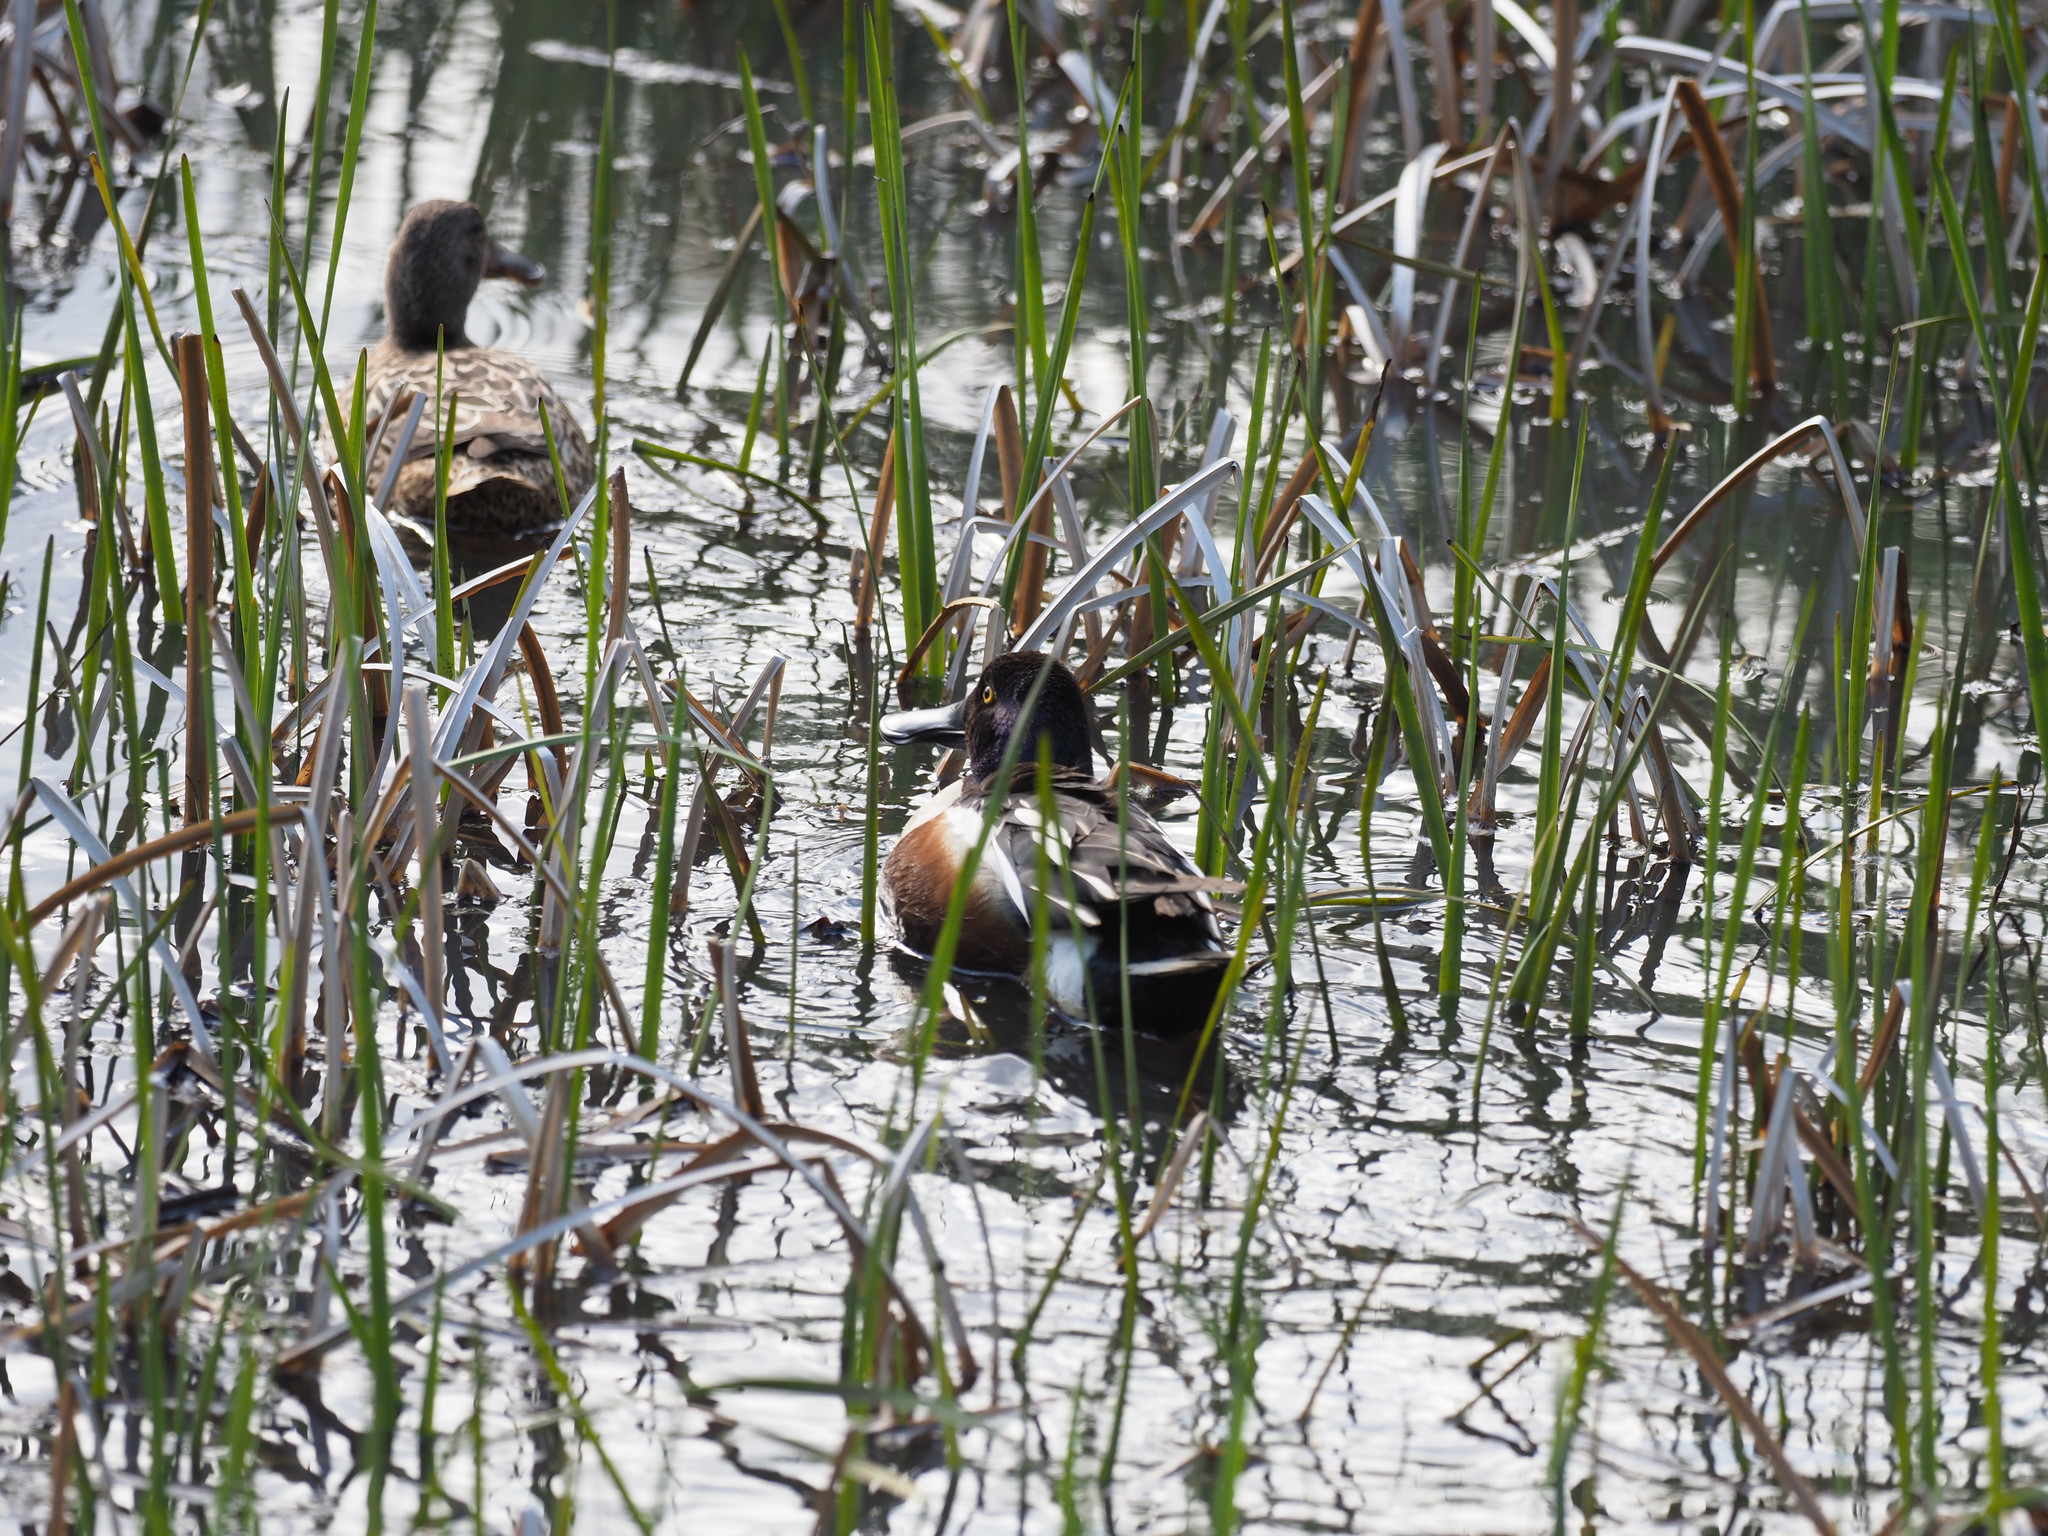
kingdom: Animalia
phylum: Chordata
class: Aves
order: Anseriformes
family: Anatidae
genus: Spatula
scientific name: Spatula clypeata
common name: Northern shoveler
